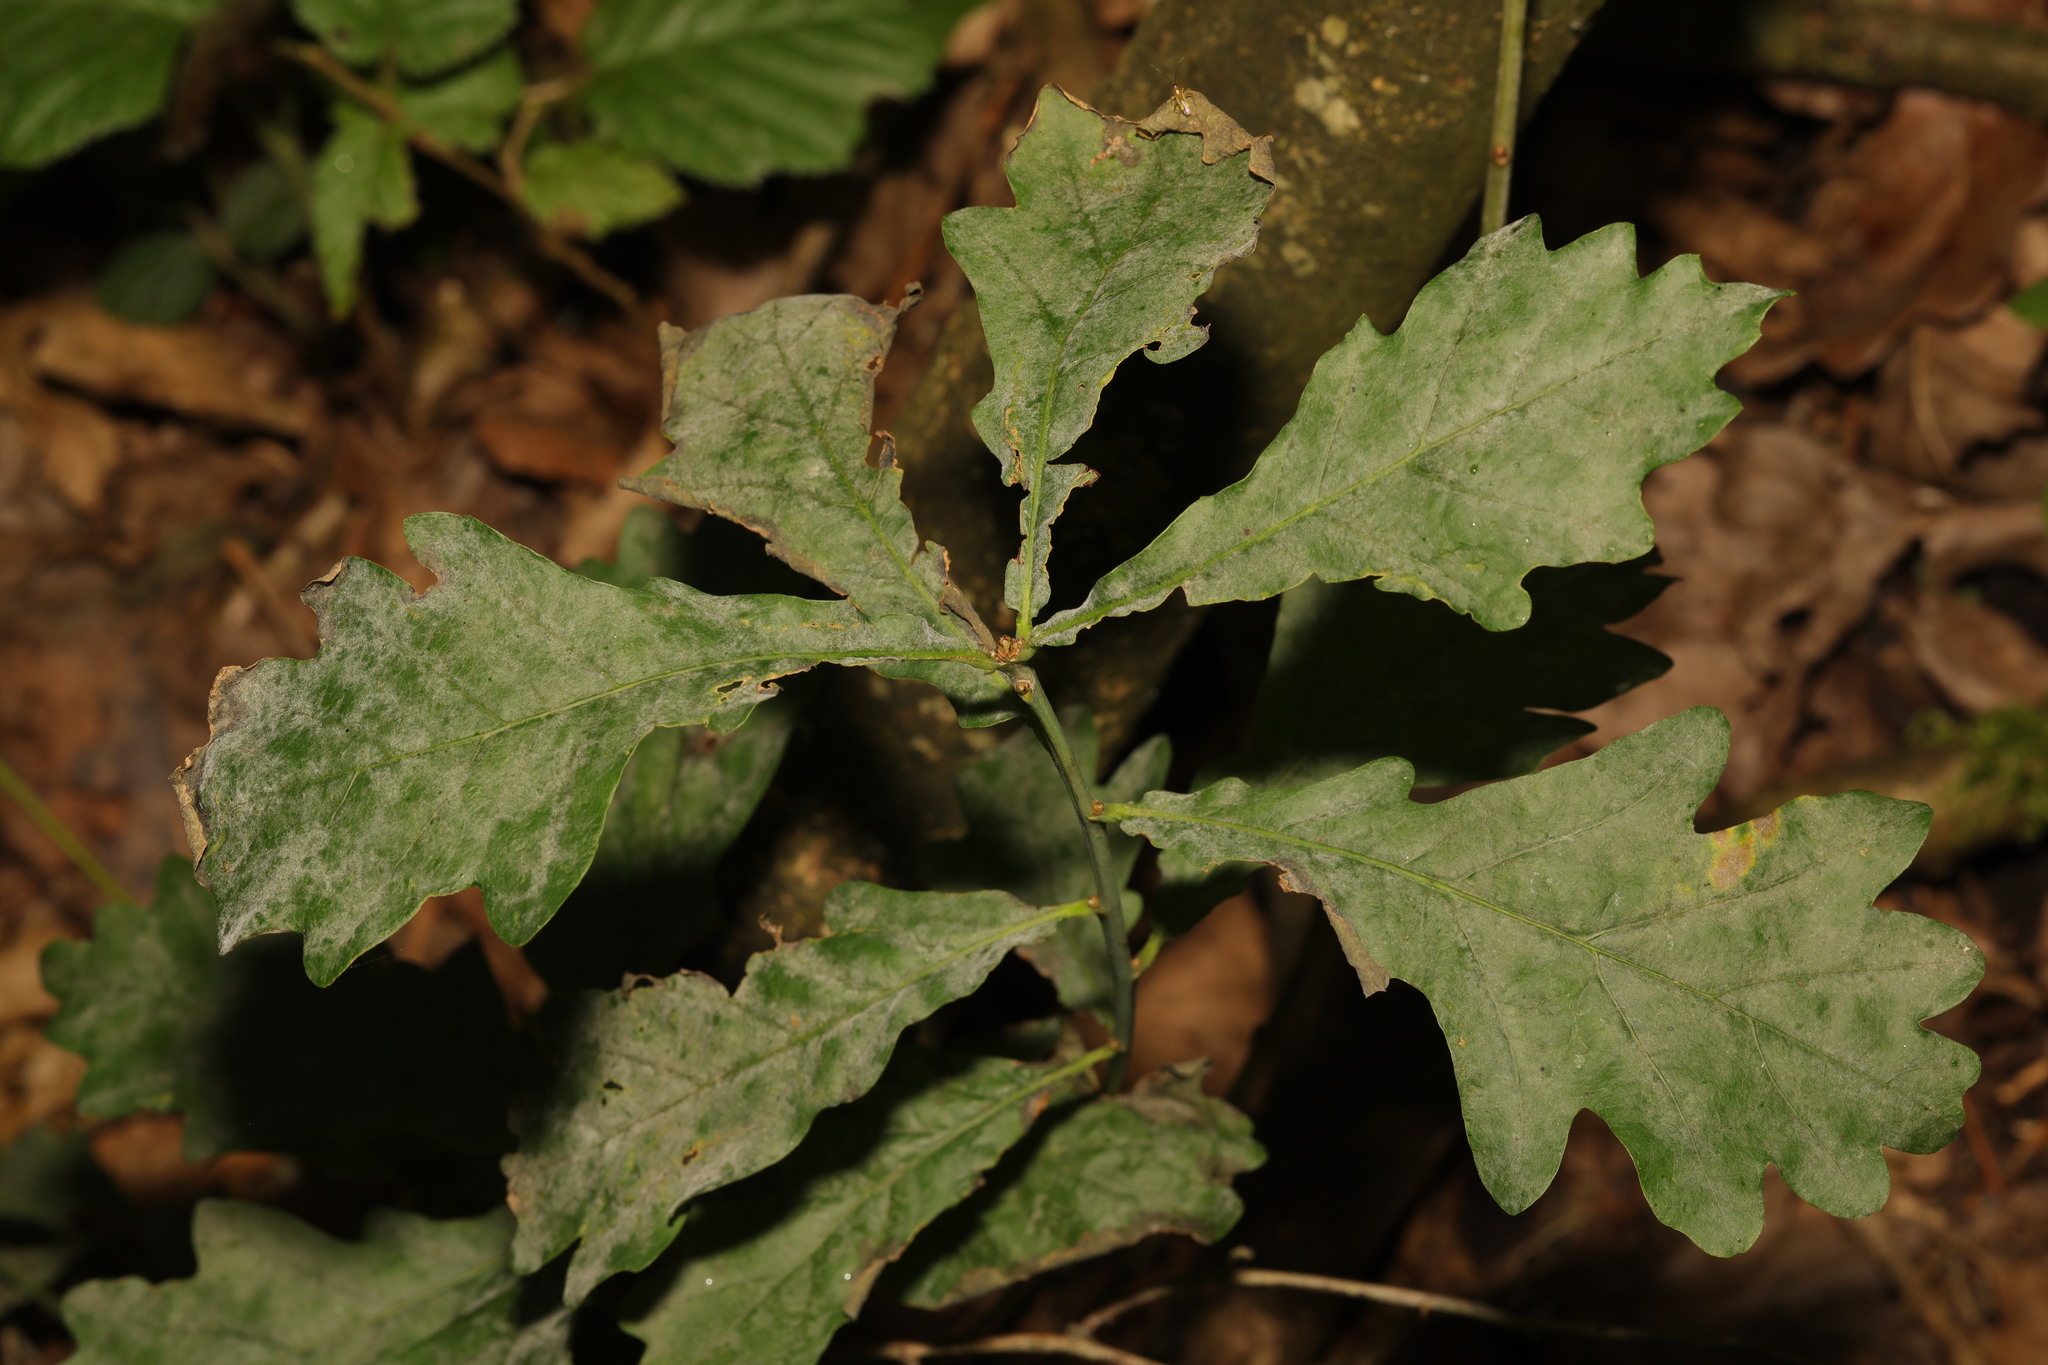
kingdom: Plantae
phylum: Tracheophyta
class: Magnoliopsida
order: Fagales
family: Fagaceae
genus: Quercus
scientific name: Quercus robur
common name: Pedunculate oak
